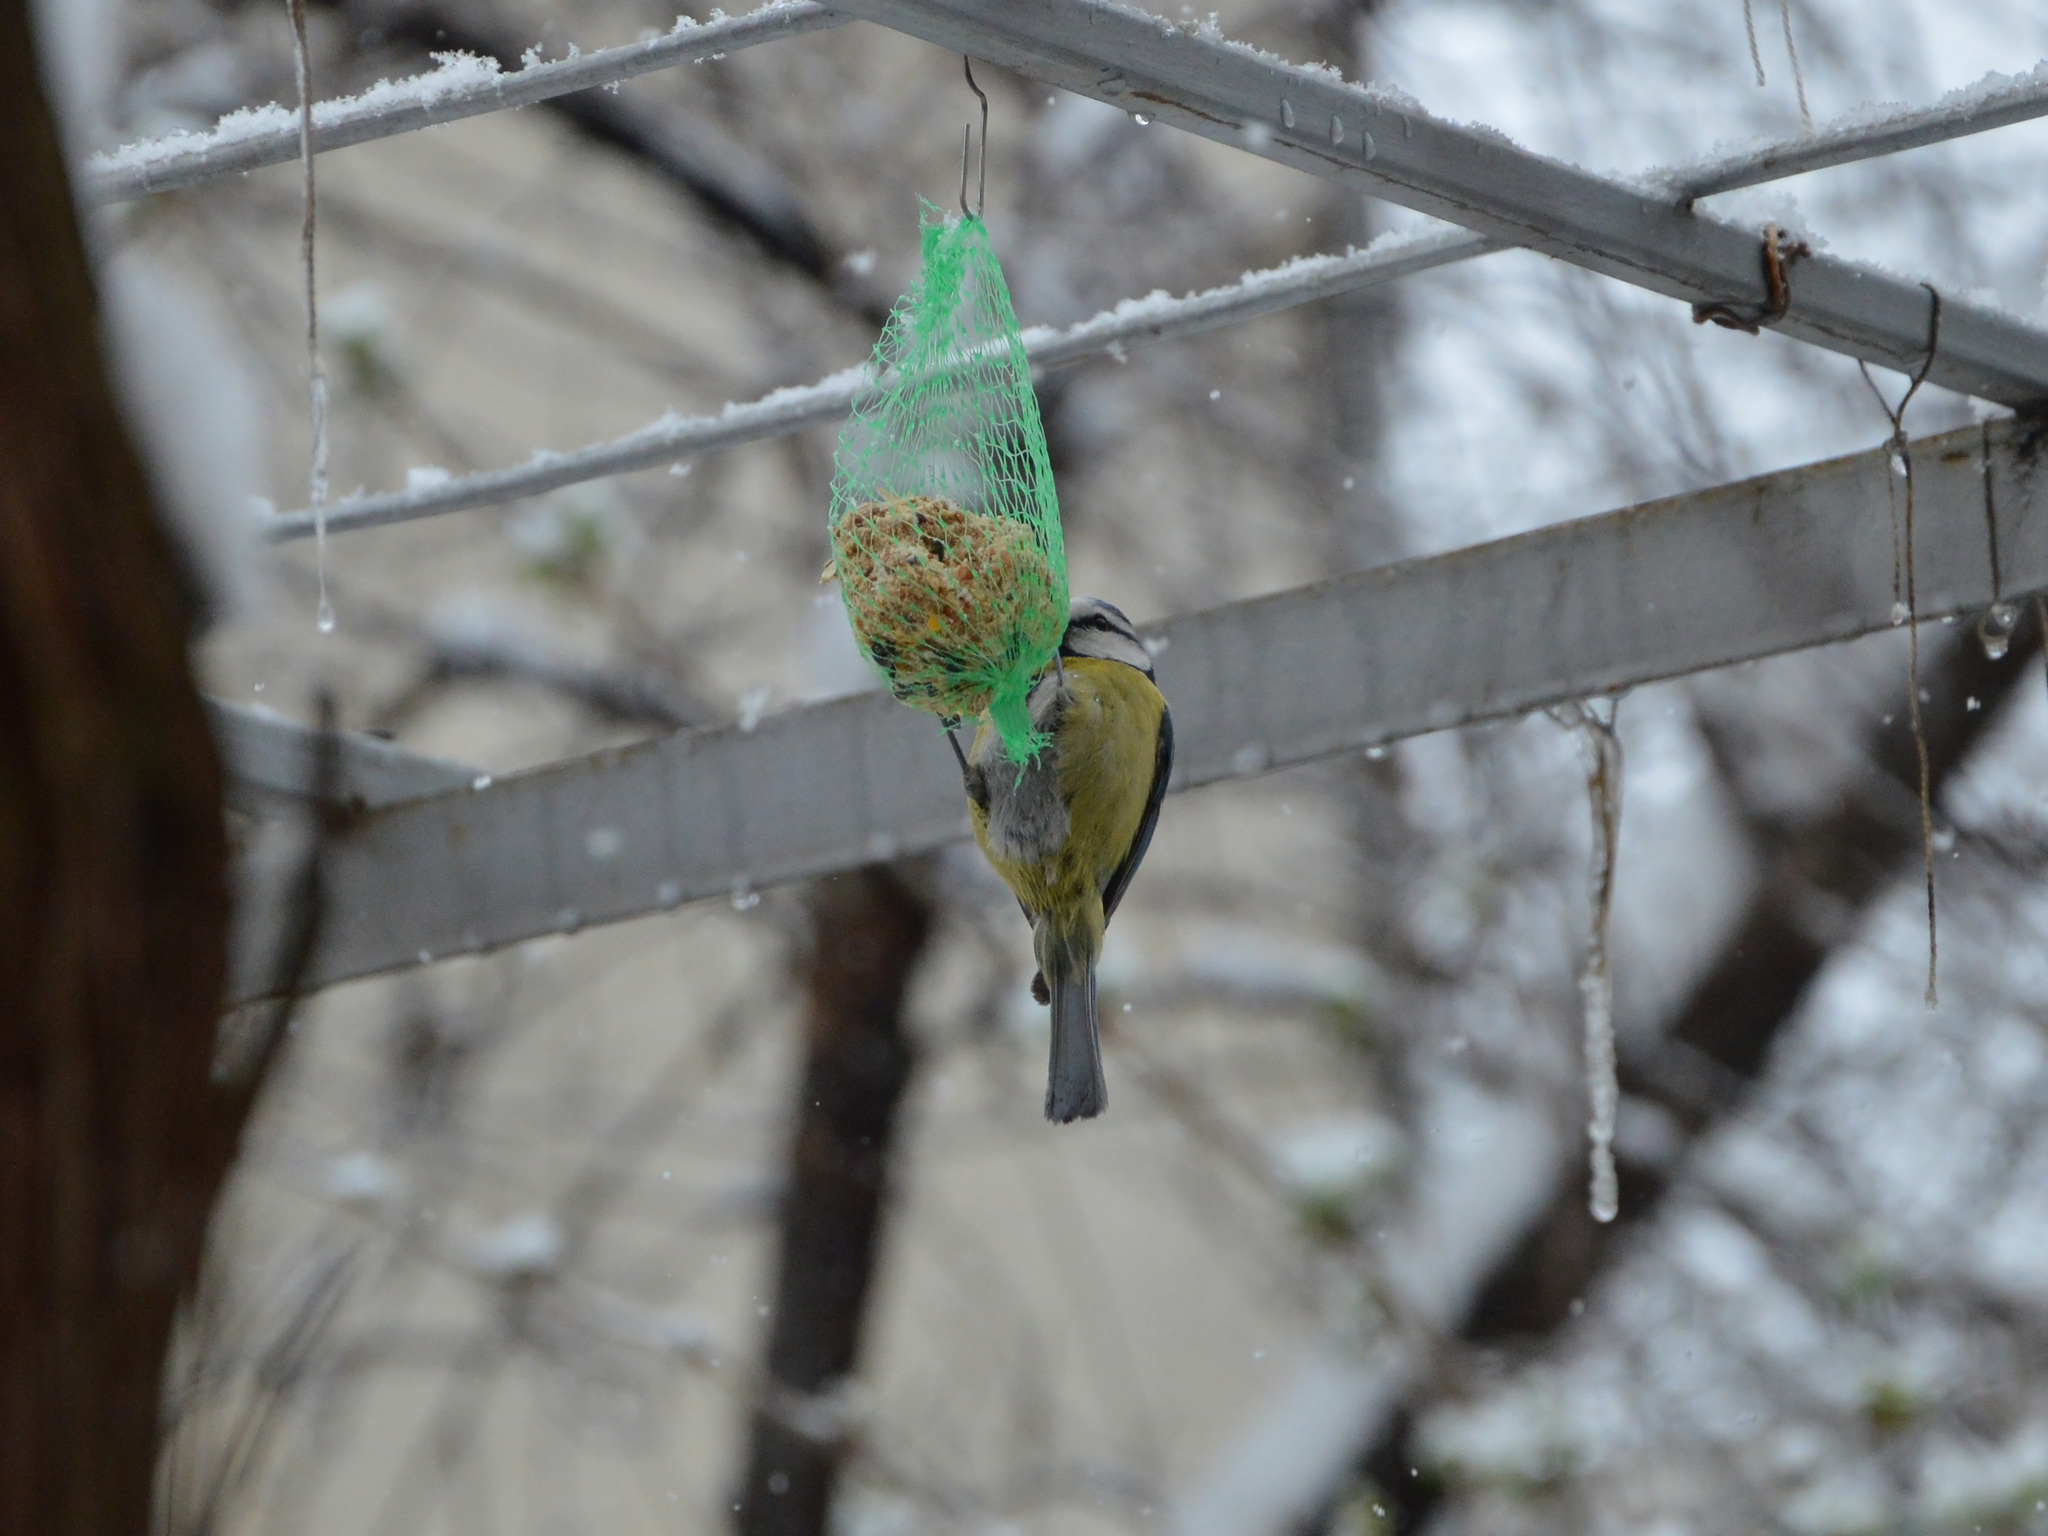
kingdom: Animalia
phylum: Chordata
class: Aves
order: Passeriformes
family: Paridae
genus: Cyanistes
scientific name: Cyanistes caeruleus
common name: Eurasian blue tit
